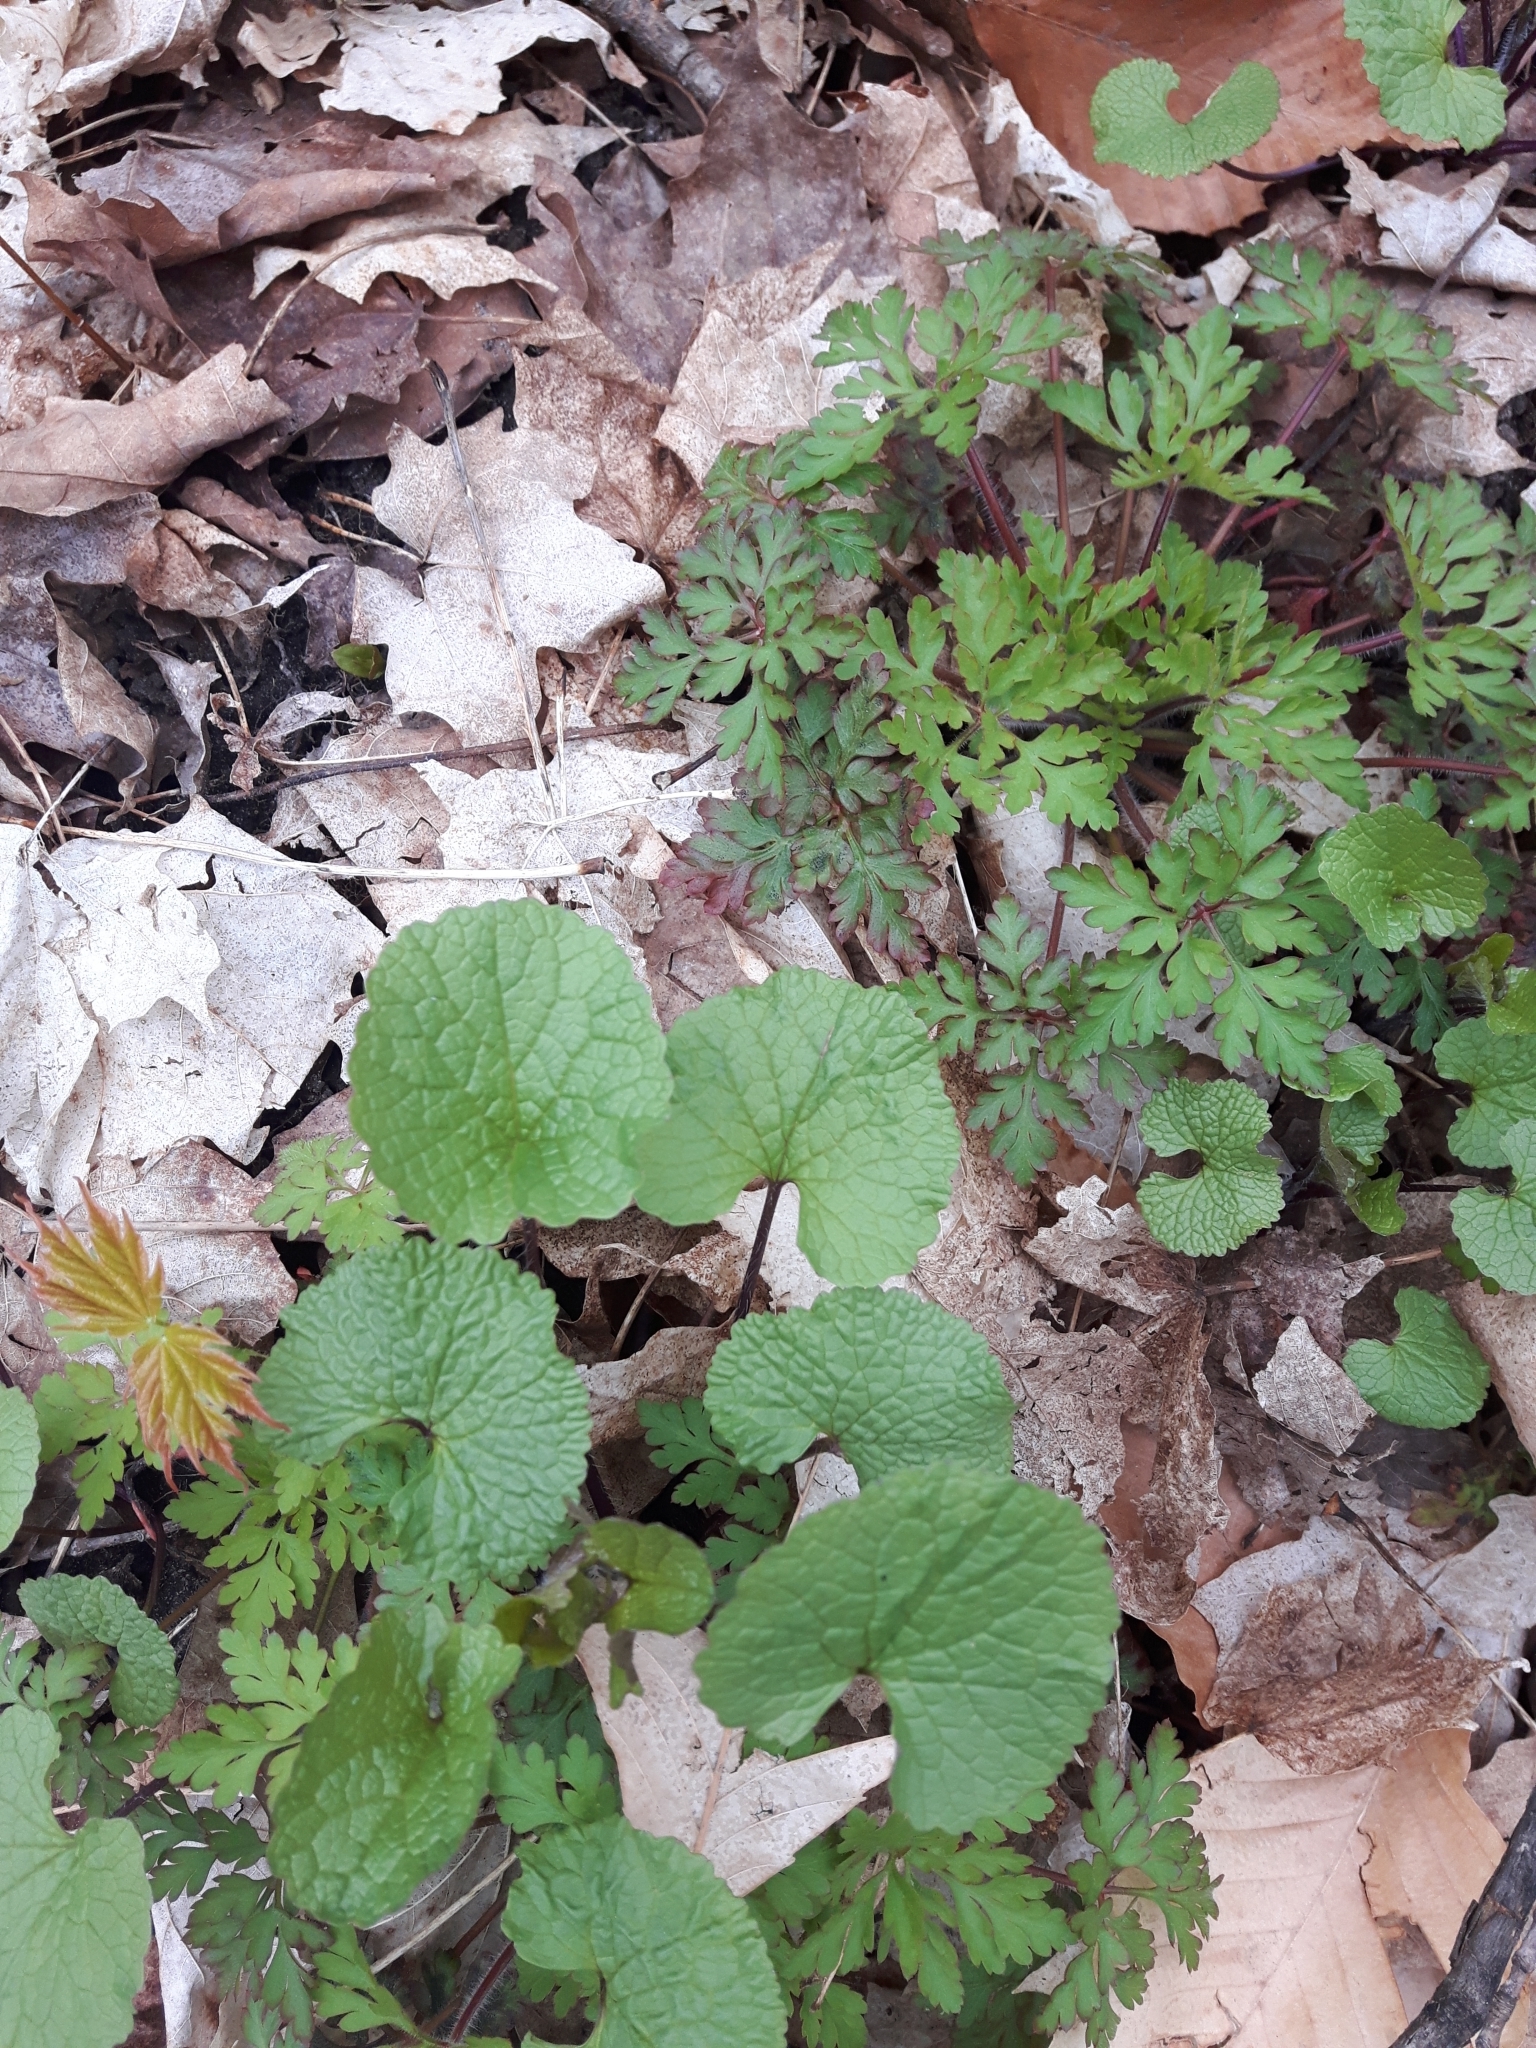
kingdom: Plantae
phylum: Tracheophyta
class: Magnoliopsida
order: Brassicales
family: Brassicaceae
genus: Alliaria
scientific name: Alliaria petiolata
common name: Garlic mustard
